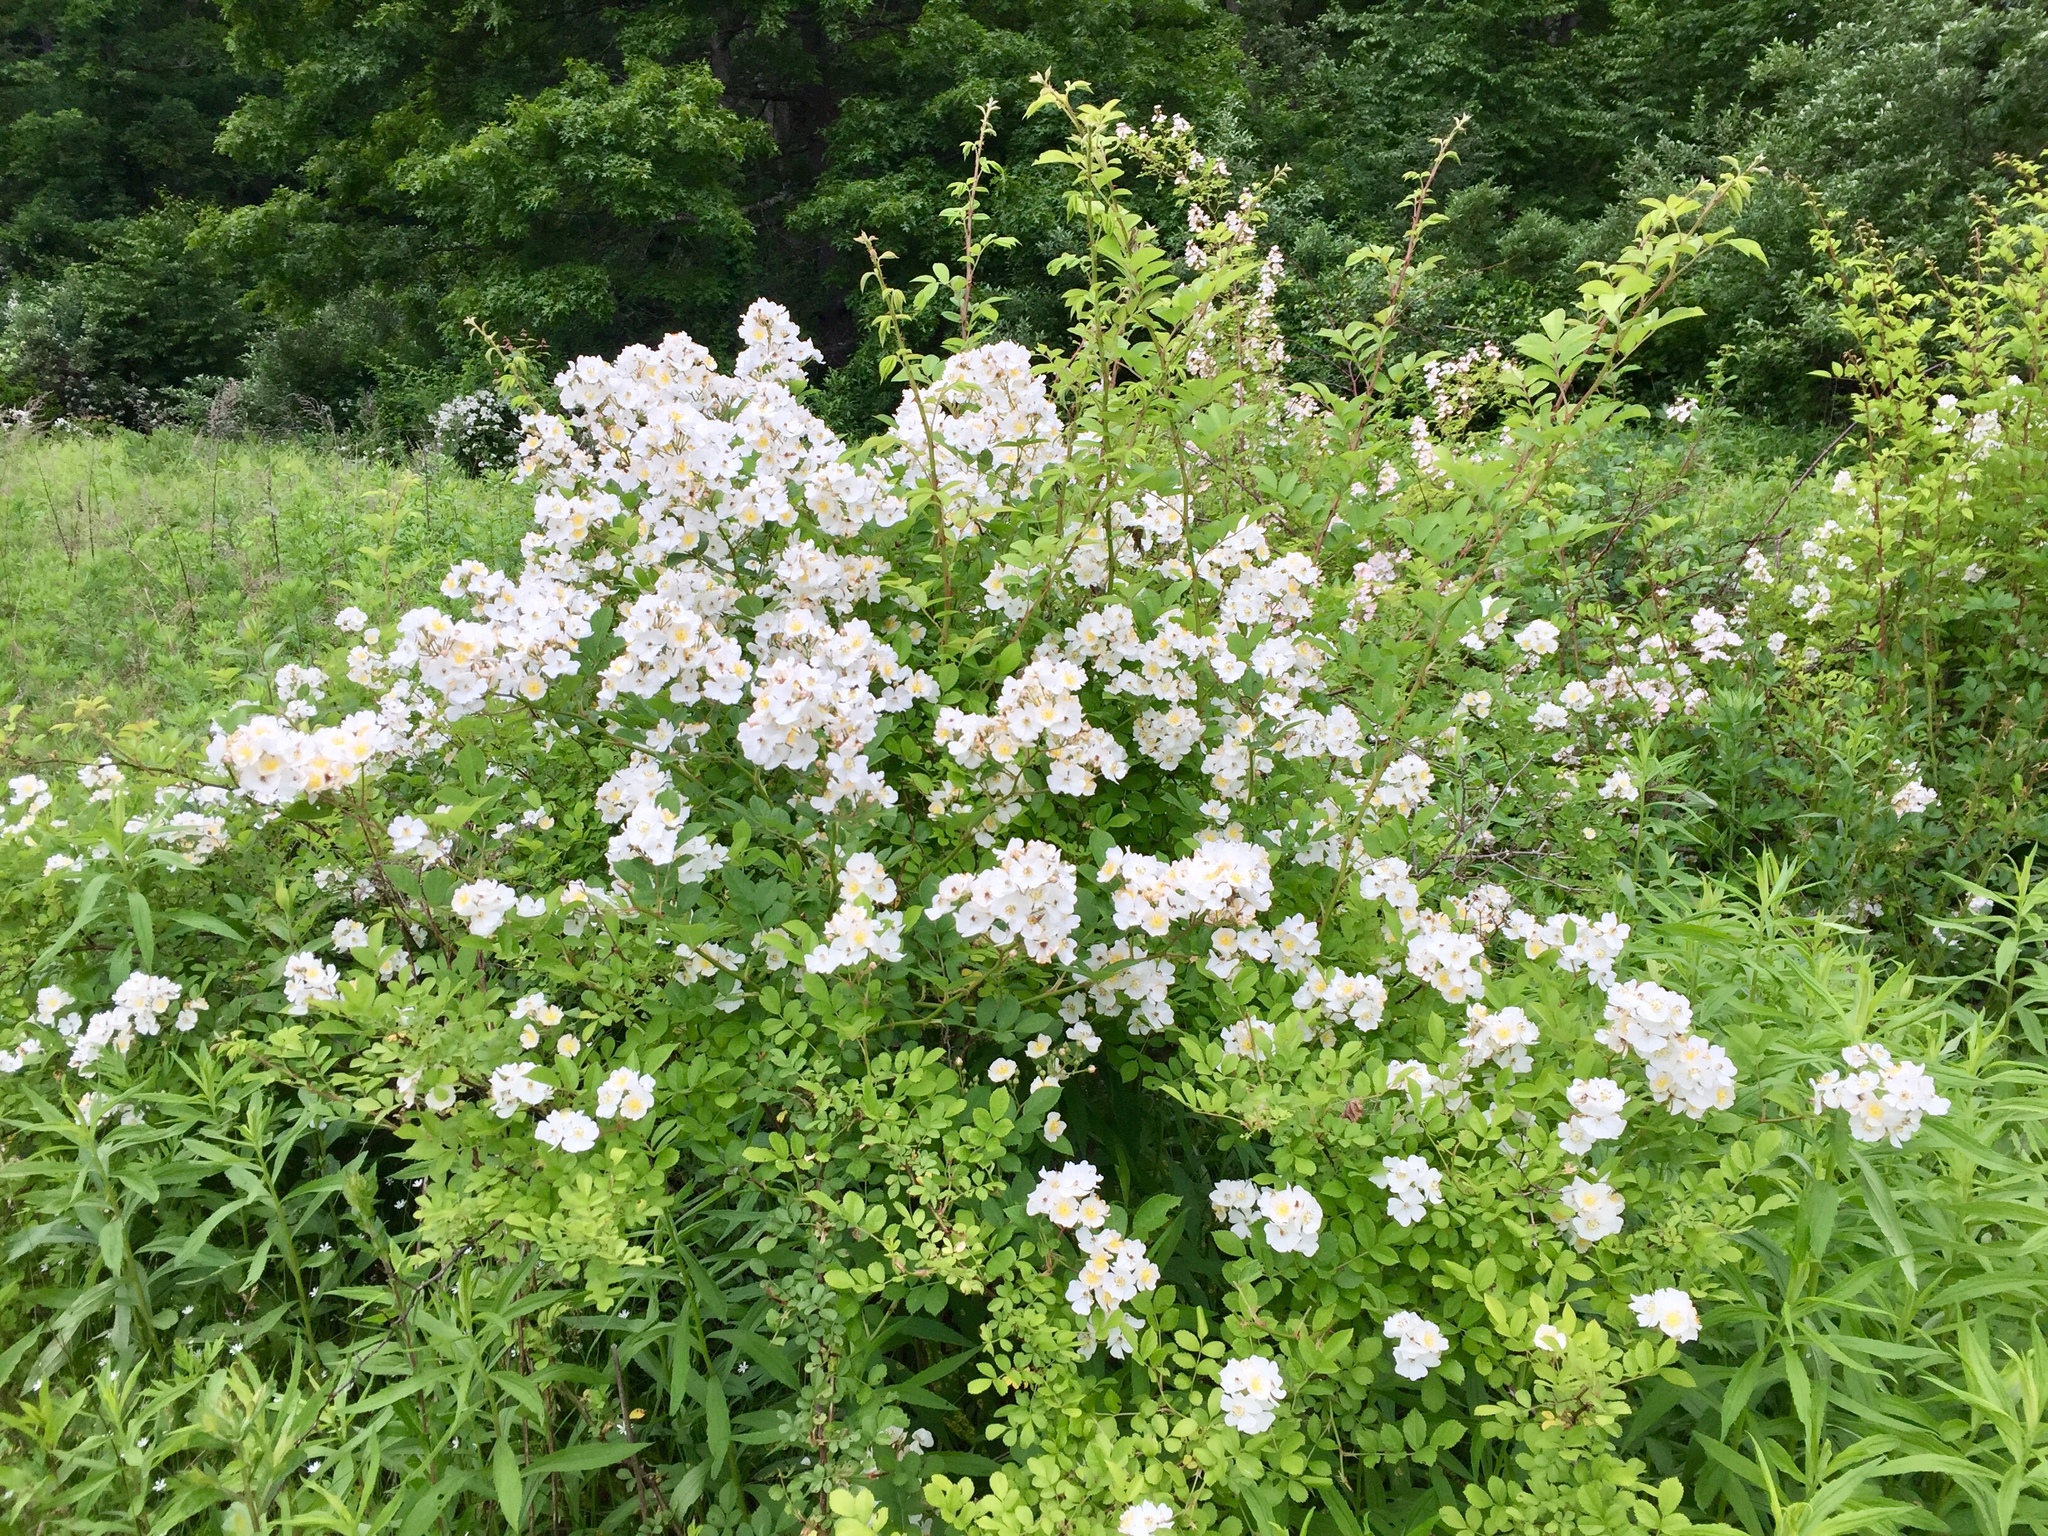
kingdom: Plantae
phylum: Tracheophyta
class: Magnoliopsida
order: Rosales
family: Rosaceae
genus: Rosa
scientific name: Rosa multiflora
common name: Multiflora rose
